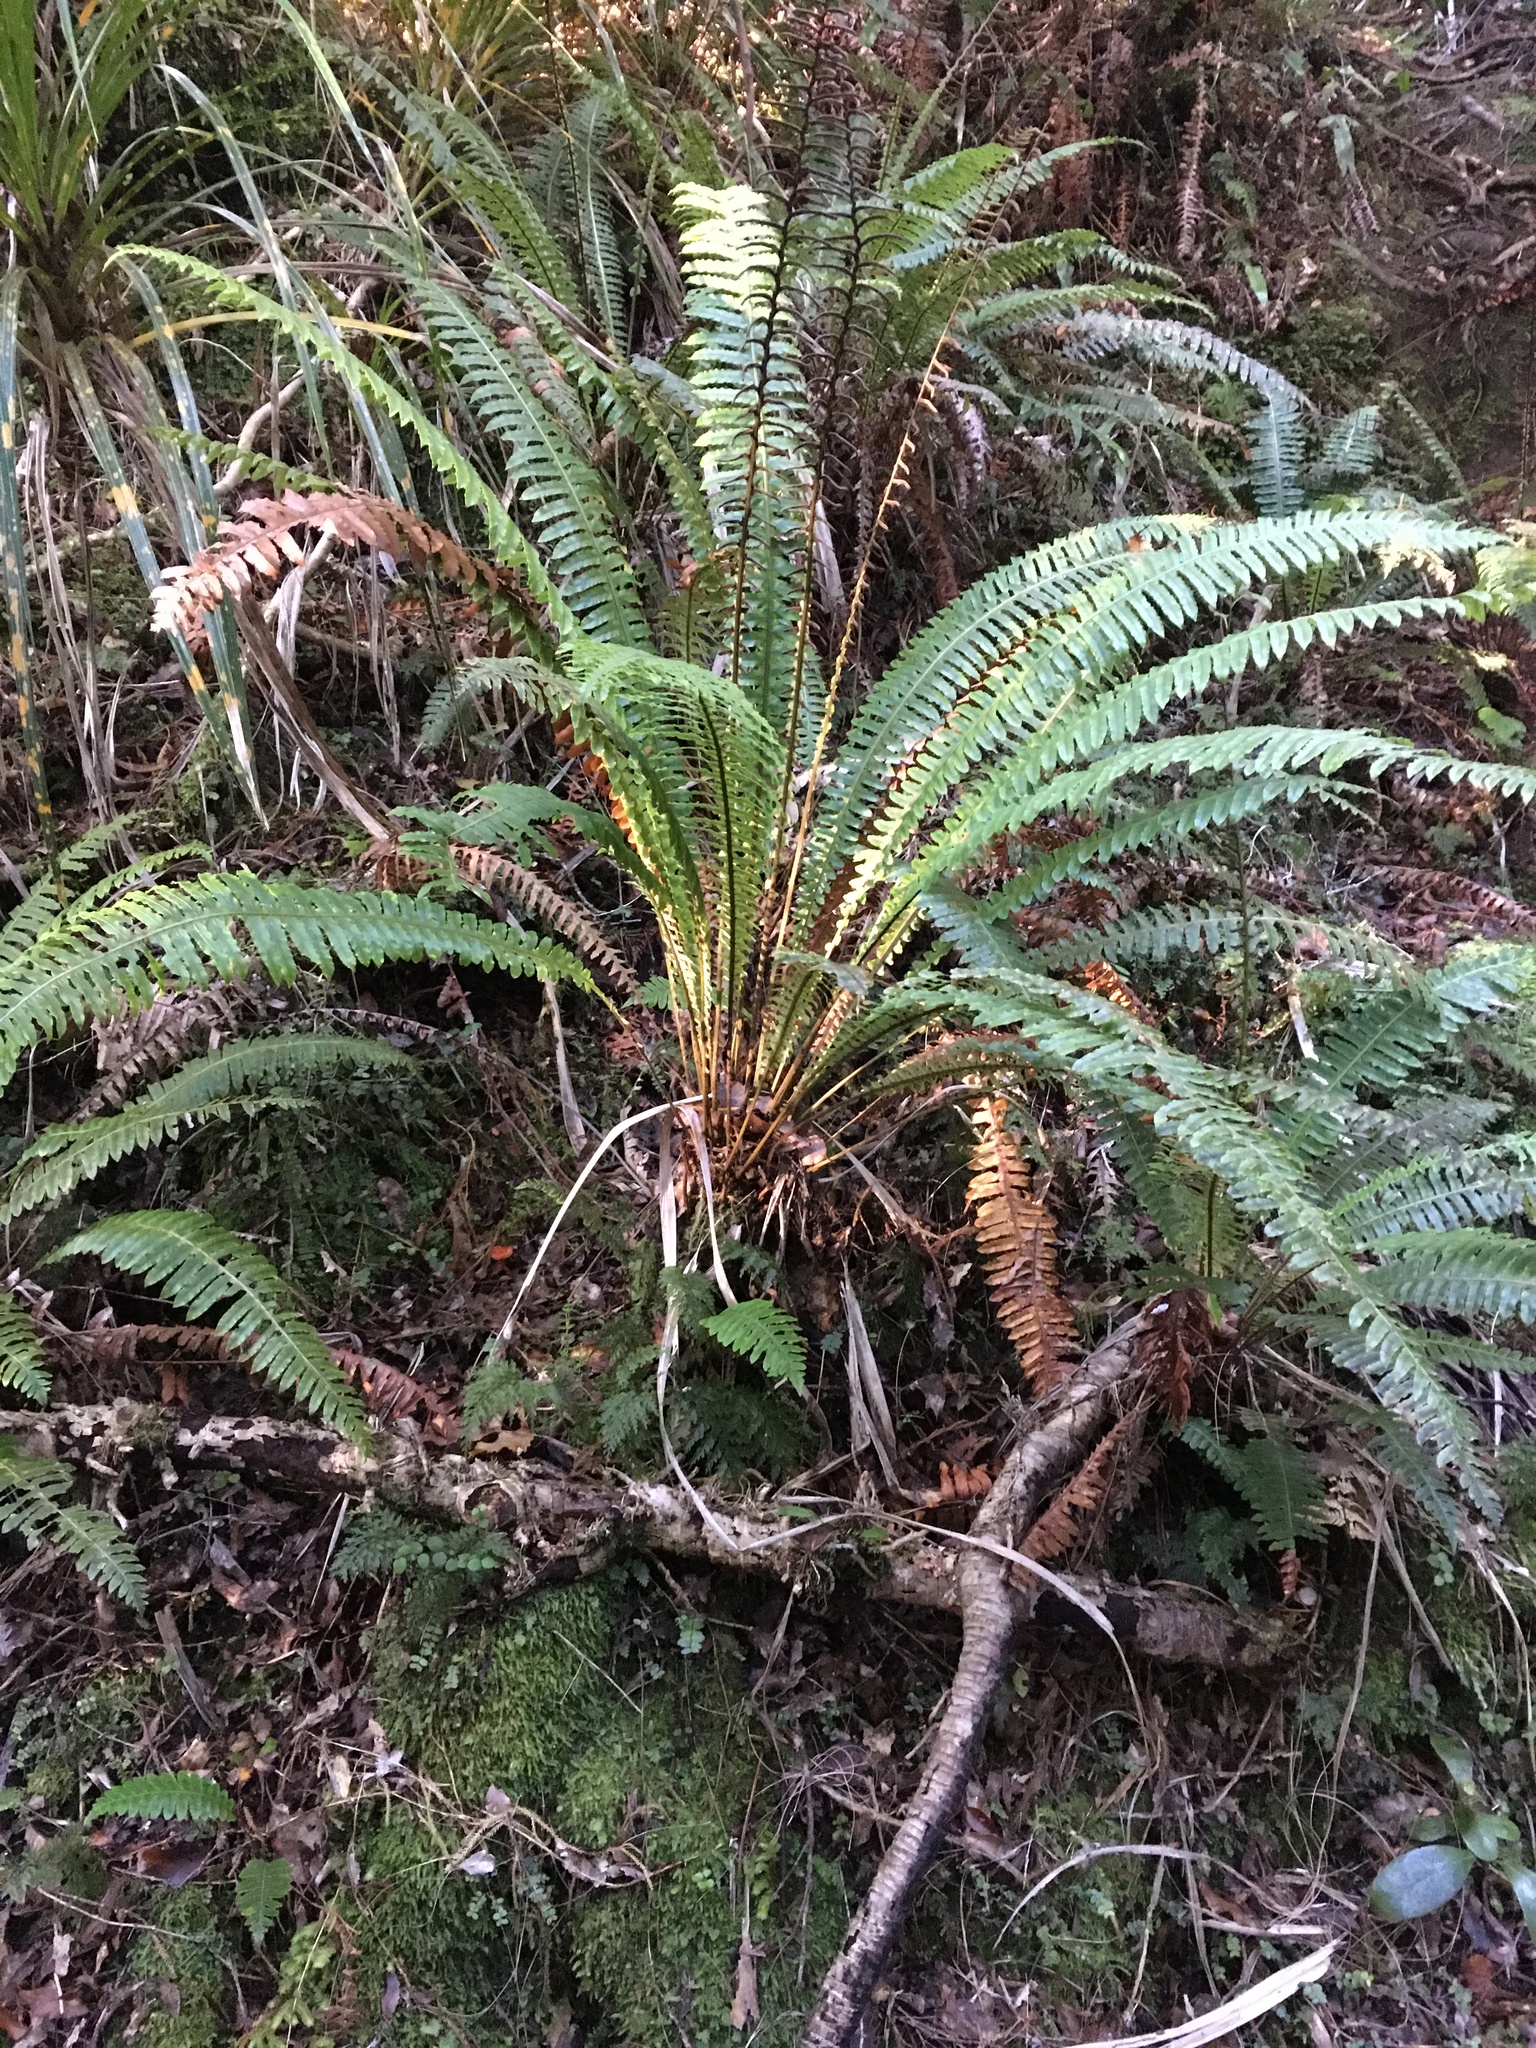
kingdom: Plantae
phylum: Tracheophyta
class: Polypodiopsida
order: Polypodiales
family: Blechnaceae
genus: Lomaria
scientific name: Lomaria discolor
